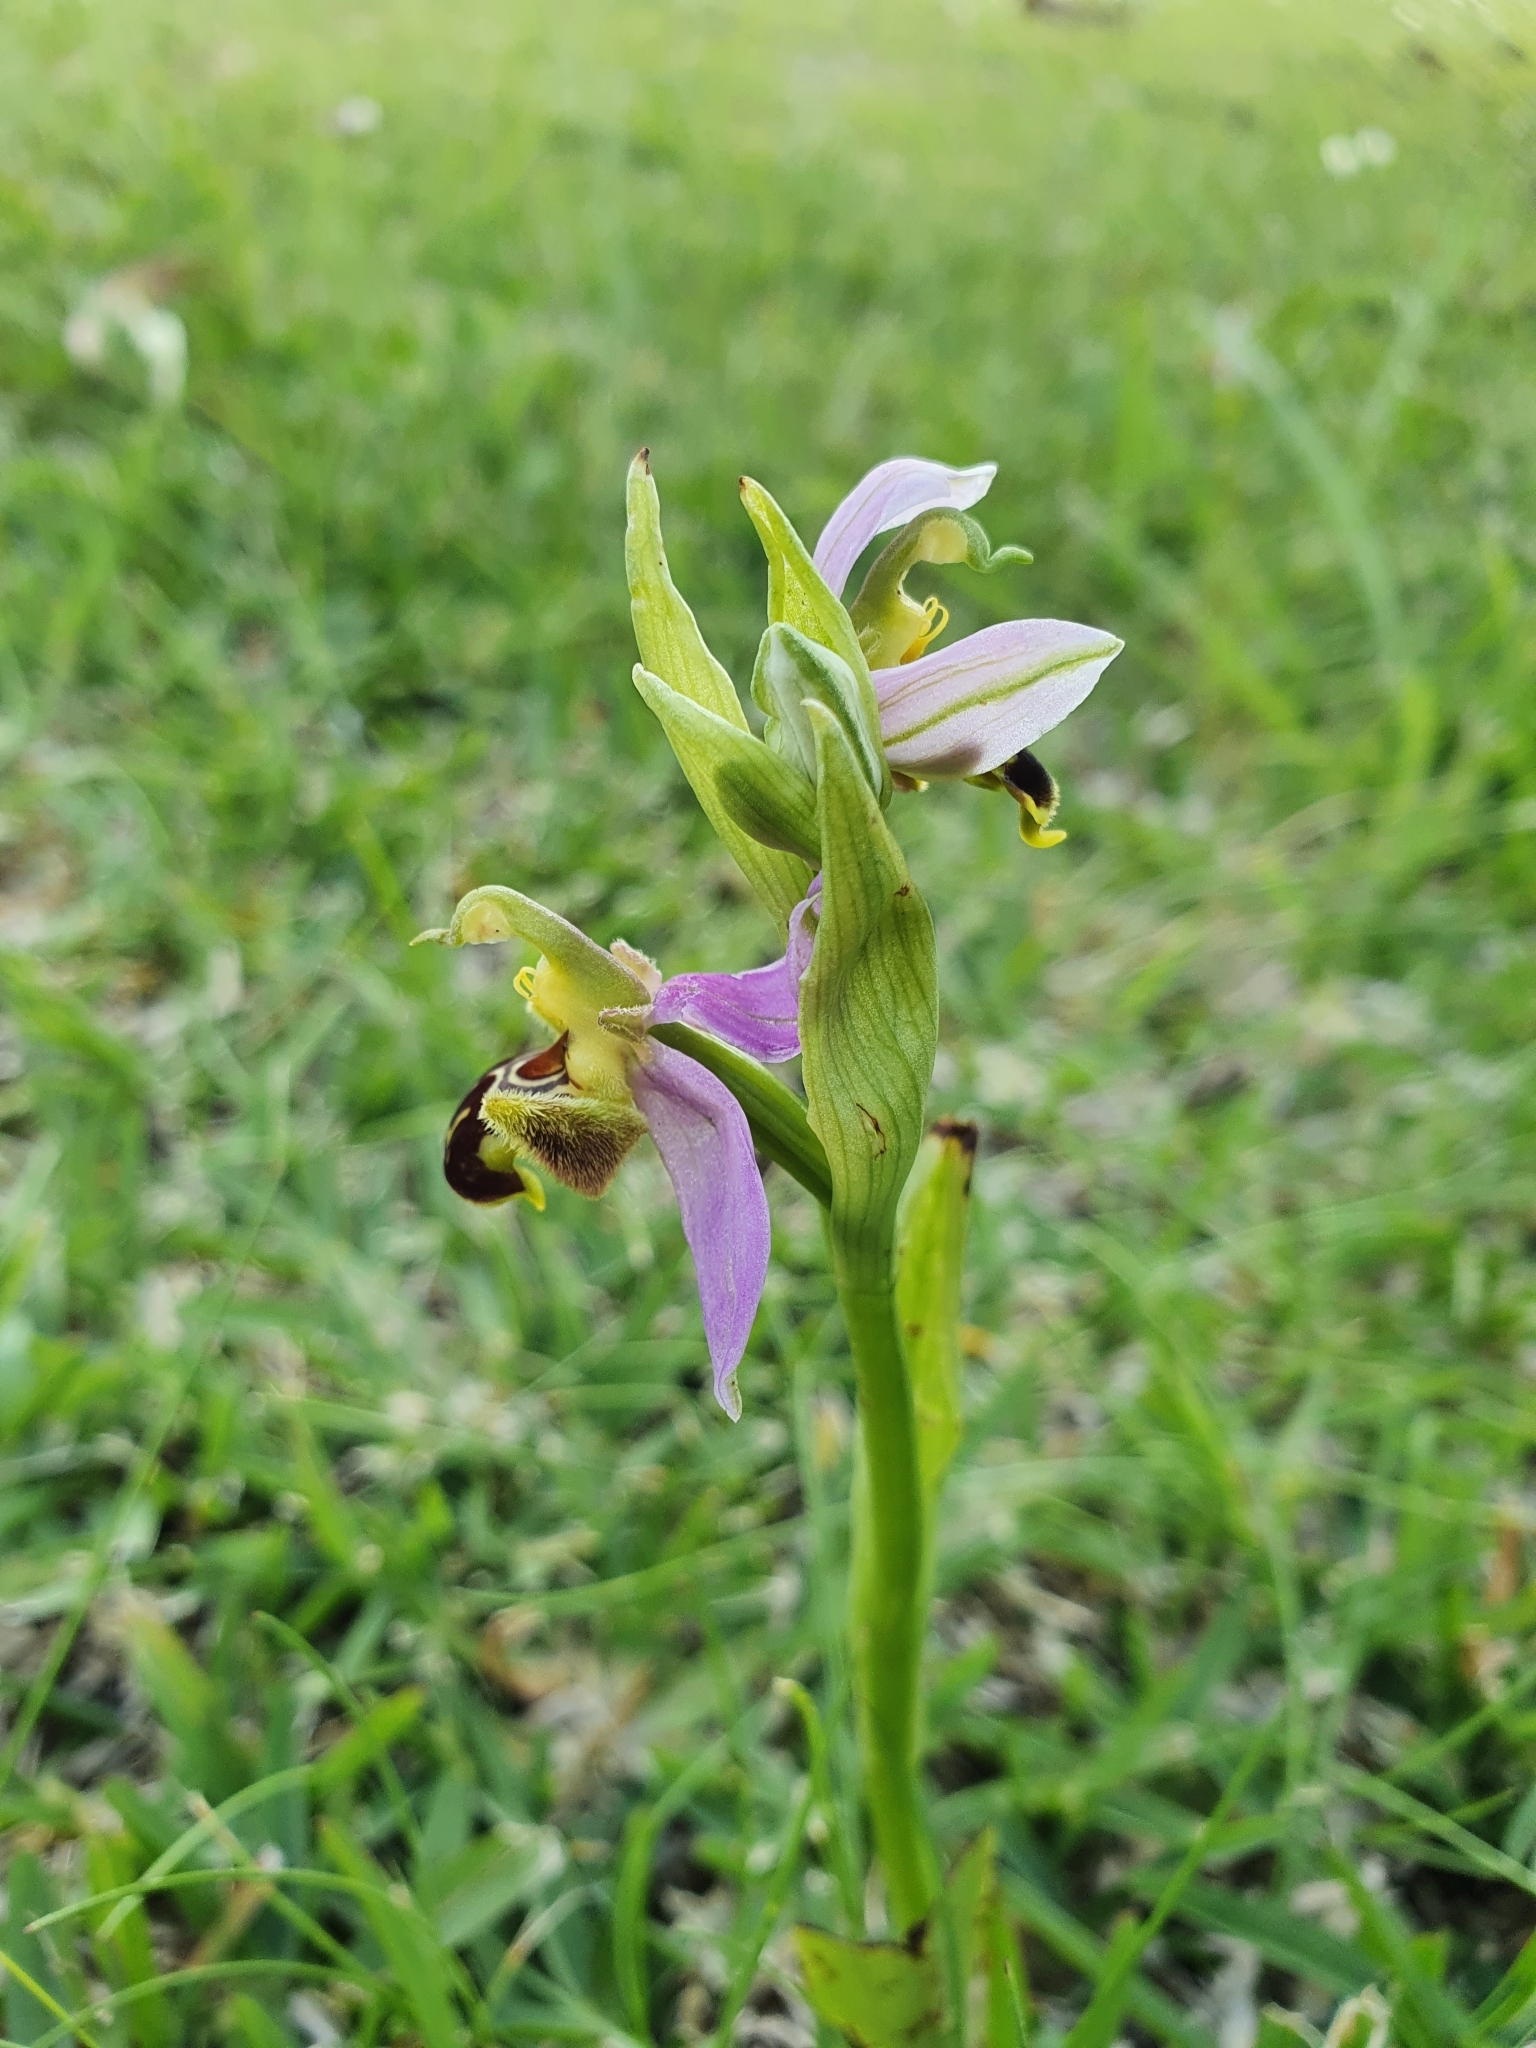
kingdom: Plantae
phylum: Tracheophyta
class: Liliopsida
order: Asparagales
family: Orchidaceae
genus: Ophrys
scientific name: Ophrys apifera
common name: Bee orchid
